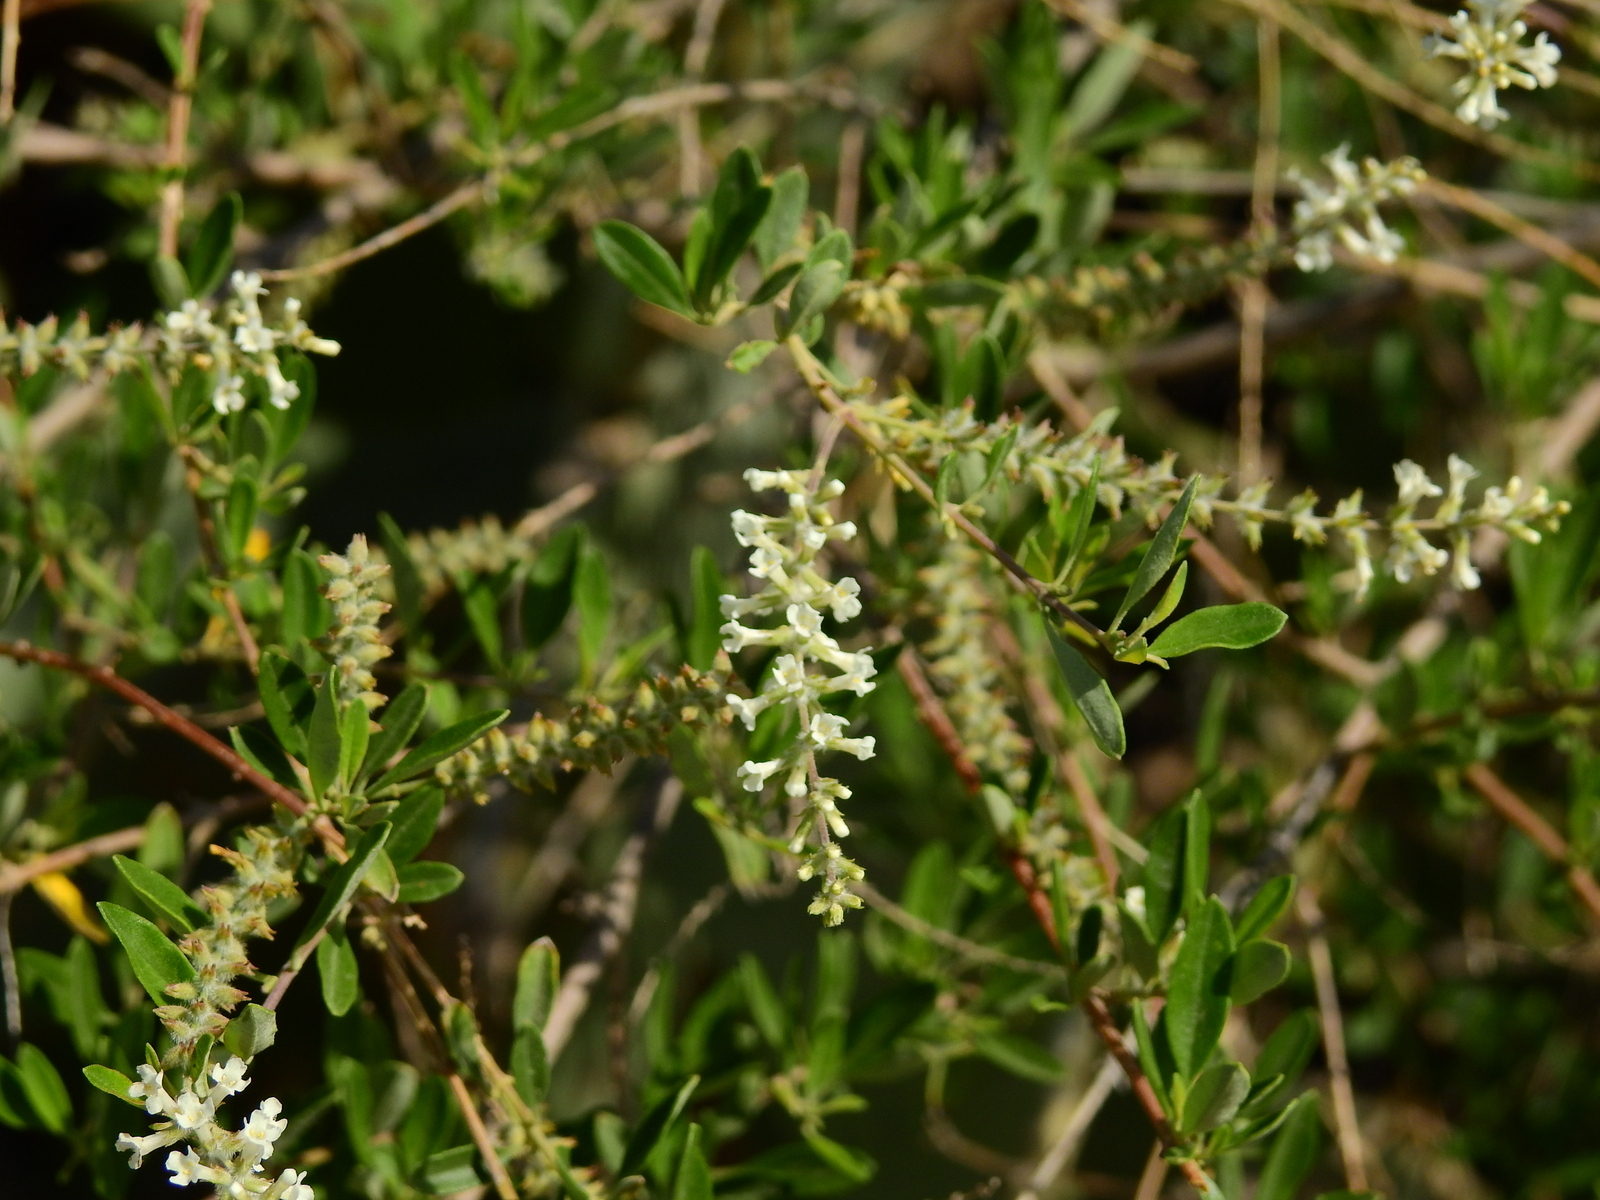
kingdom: Plantae
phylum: Tracheophyta
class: Magnoliopsida
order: Lamiales
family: Verbenaceae
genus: Aloysia
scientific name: Aloysia gratissima
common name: Common bee-brush
